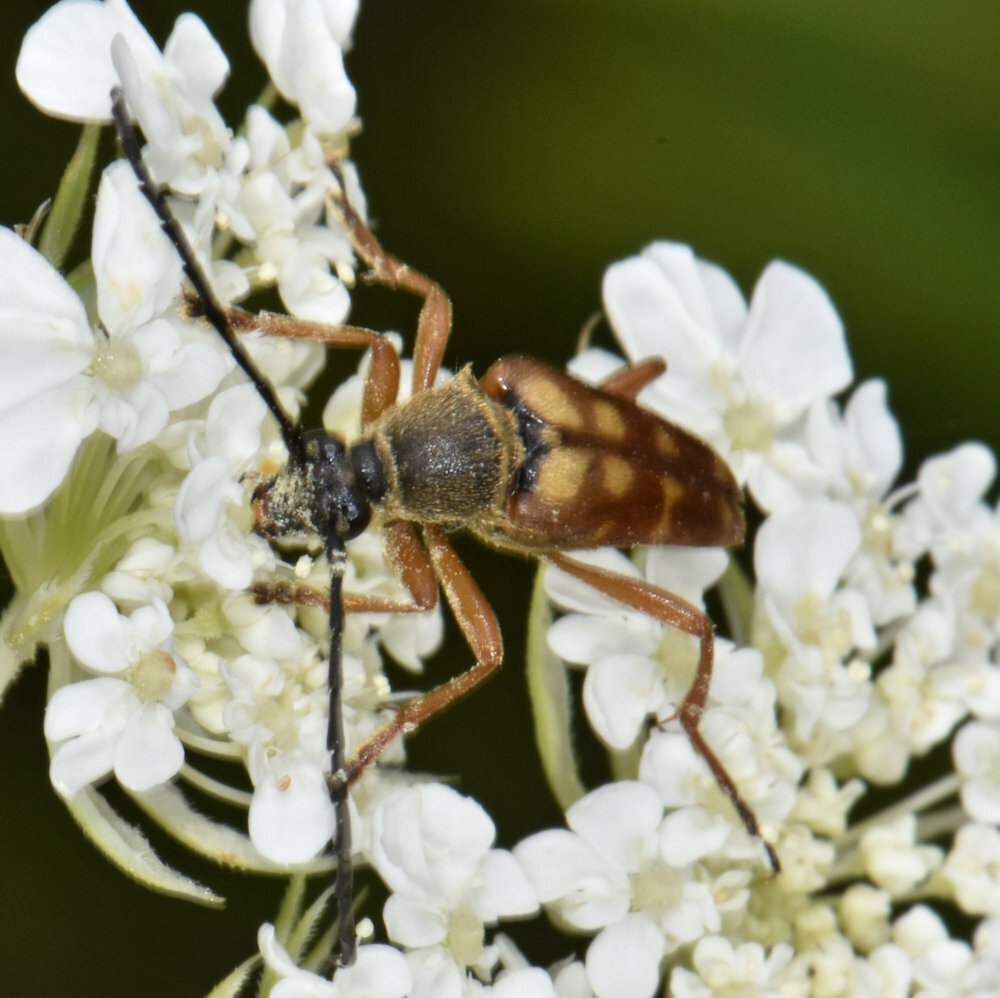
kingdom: Animalia
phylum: Arthropoda
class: Insecta
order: Coleoptera
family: Cerambycidae
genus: Typocerus
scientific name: Typocerus velutinus
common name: Banded longhorn beetle
